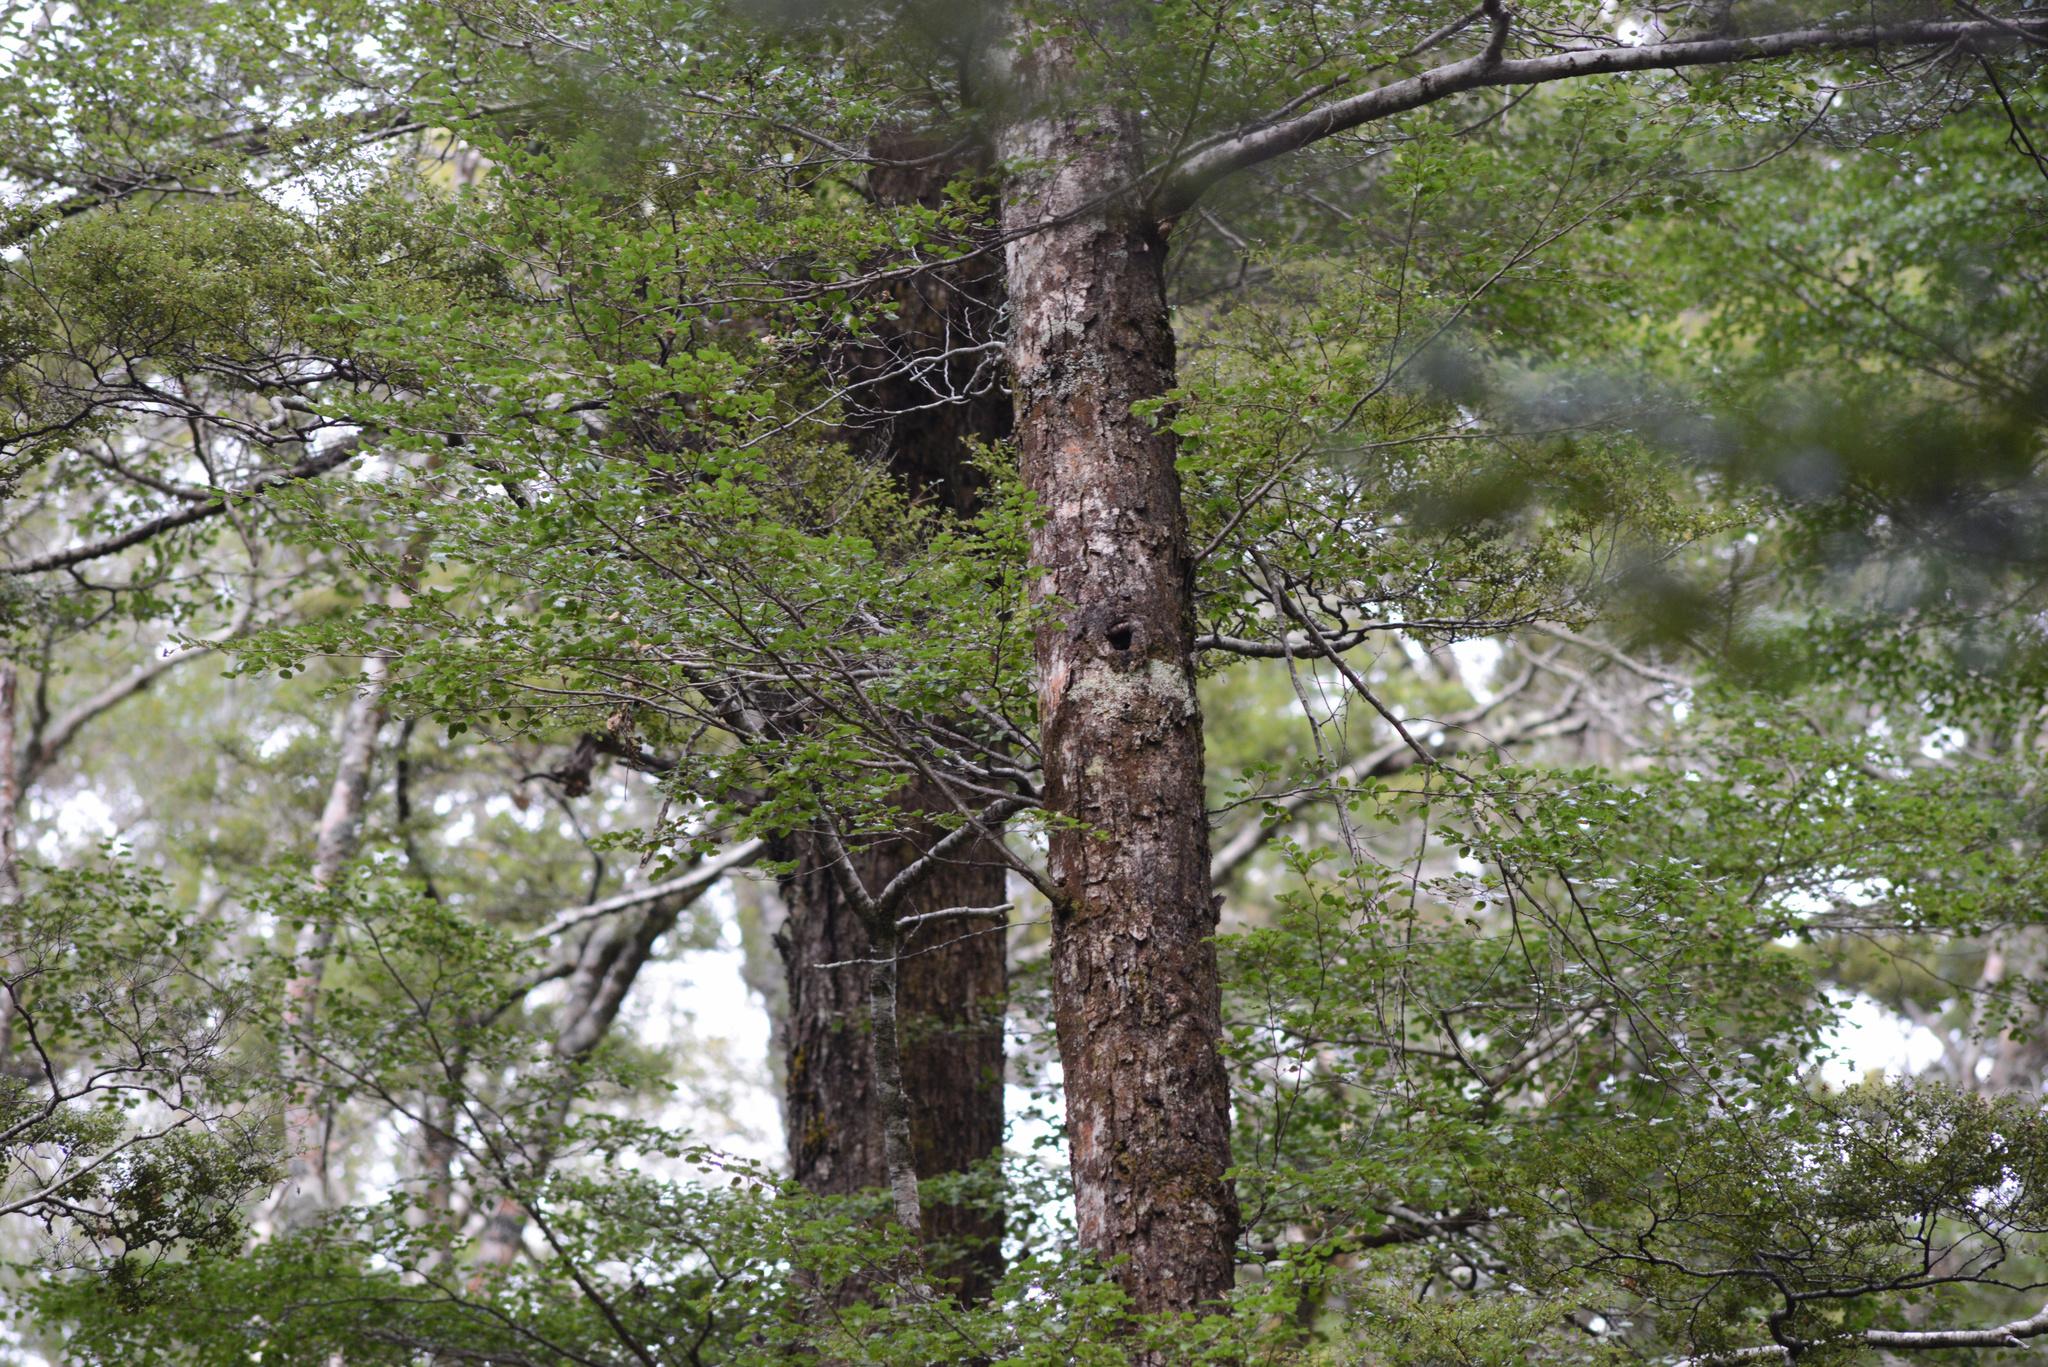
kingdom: Animalia
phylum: Chordata
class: Aves
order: Passeriformes
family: Acanthisittidae
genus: Acanthisitta
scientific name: Acanthisitta chloris
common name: Rifleman
